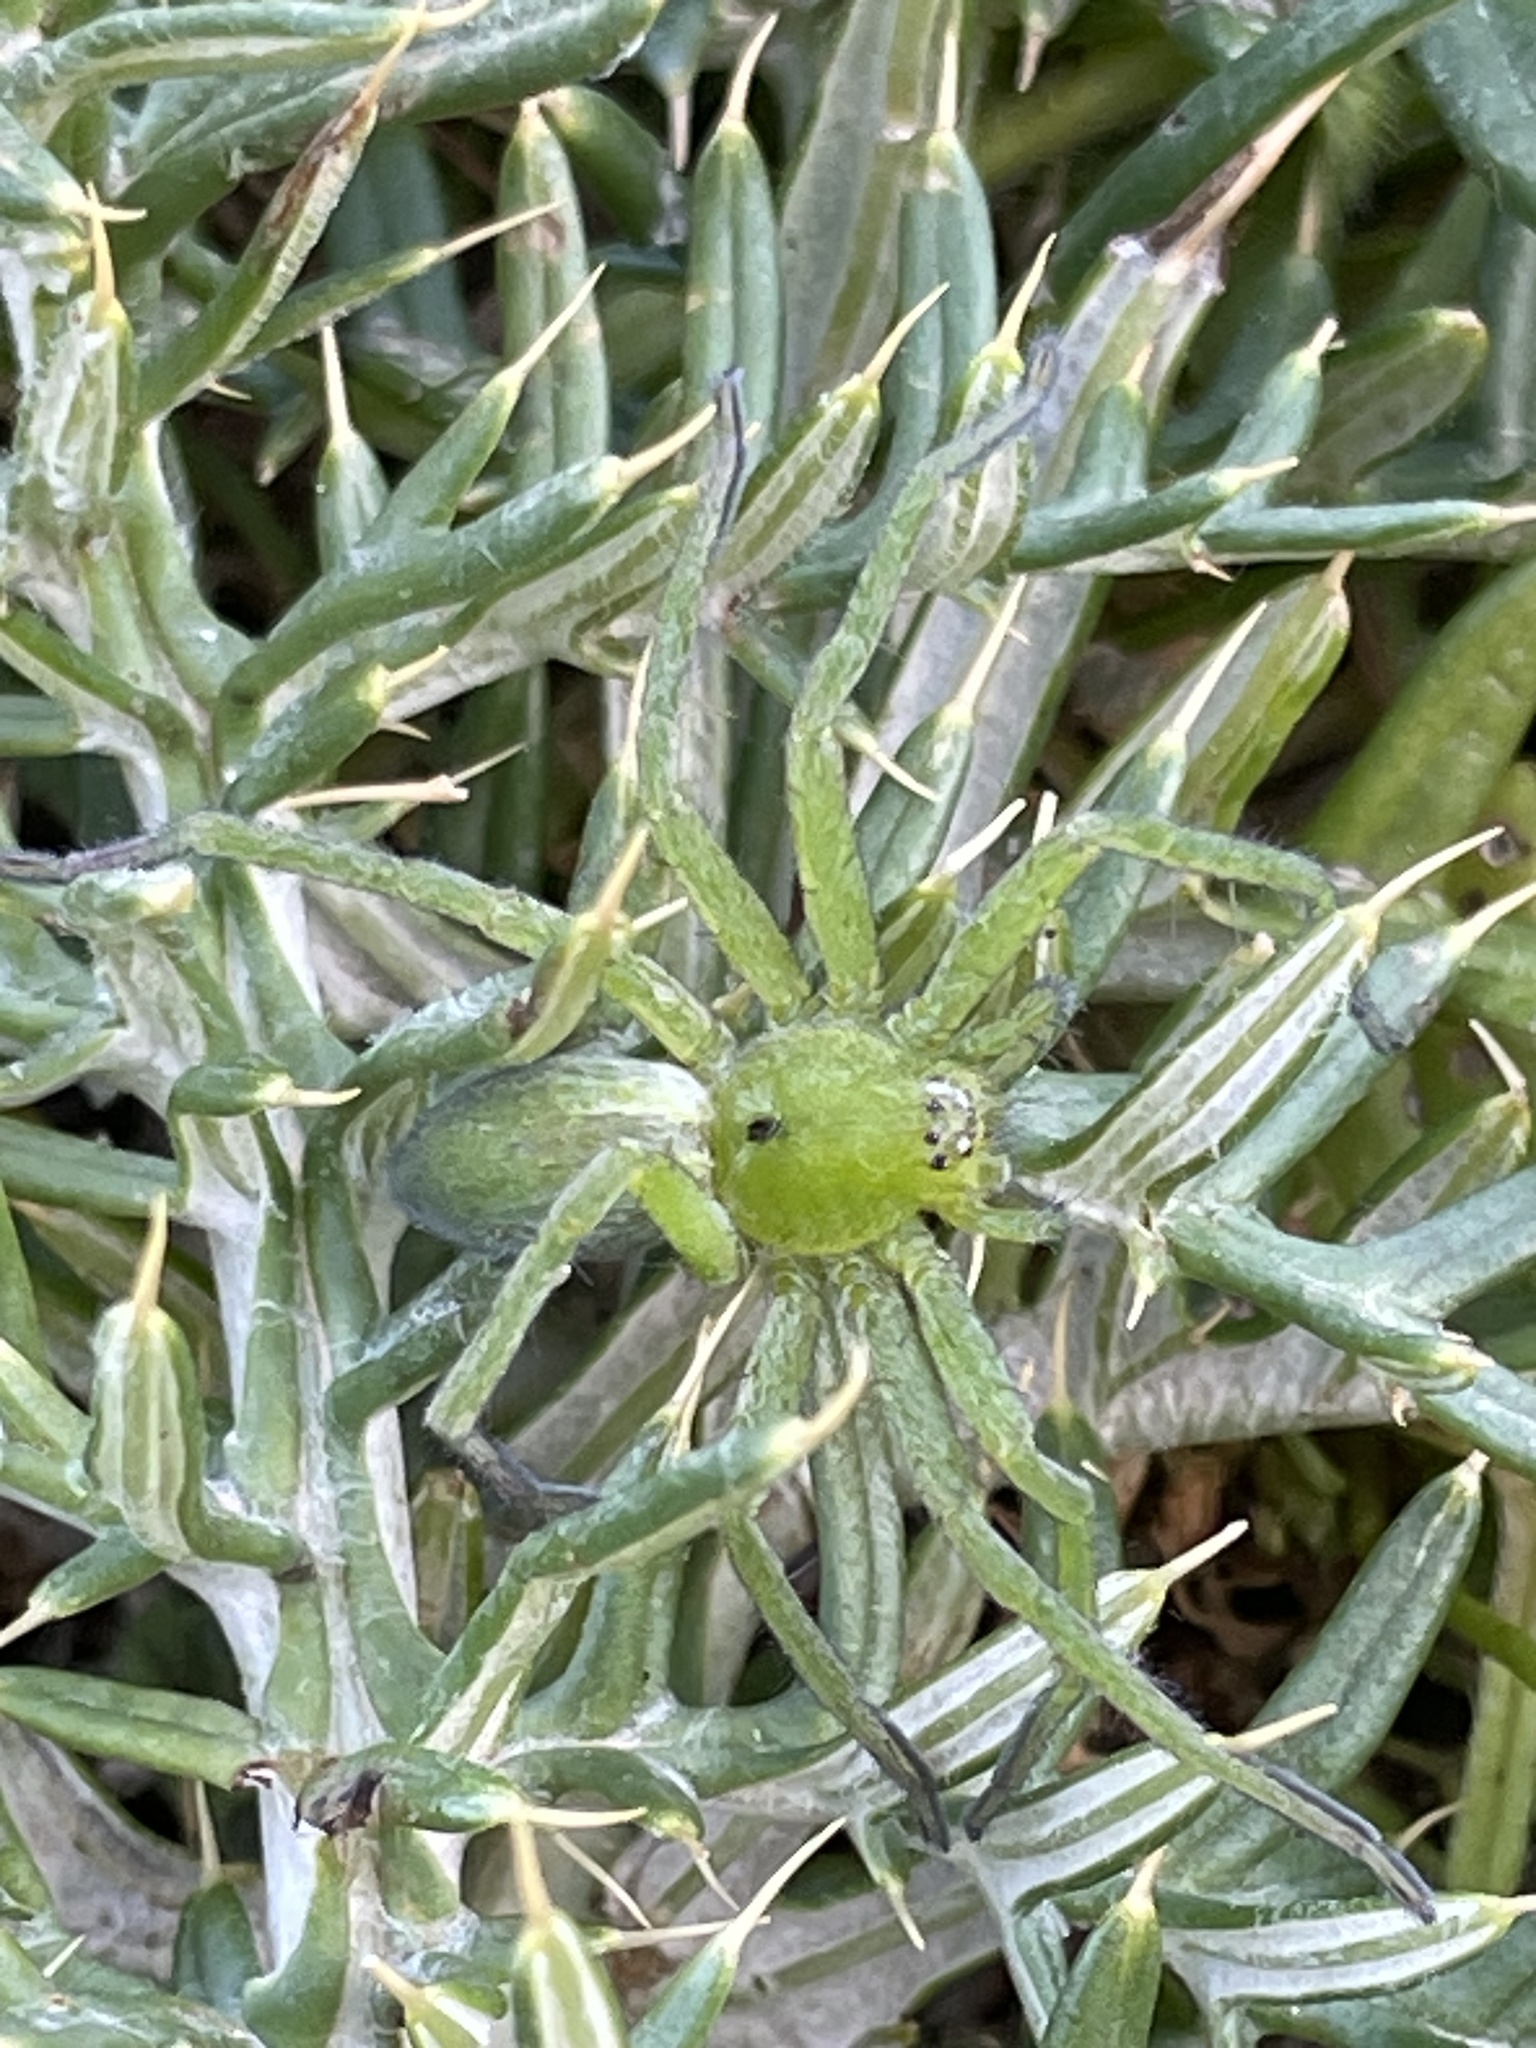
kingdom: Animalia
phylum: Arthropoda
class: Arachnida
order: Araneae
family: Sparassidae
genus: Micrommata
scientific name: Micrommata ligurina
